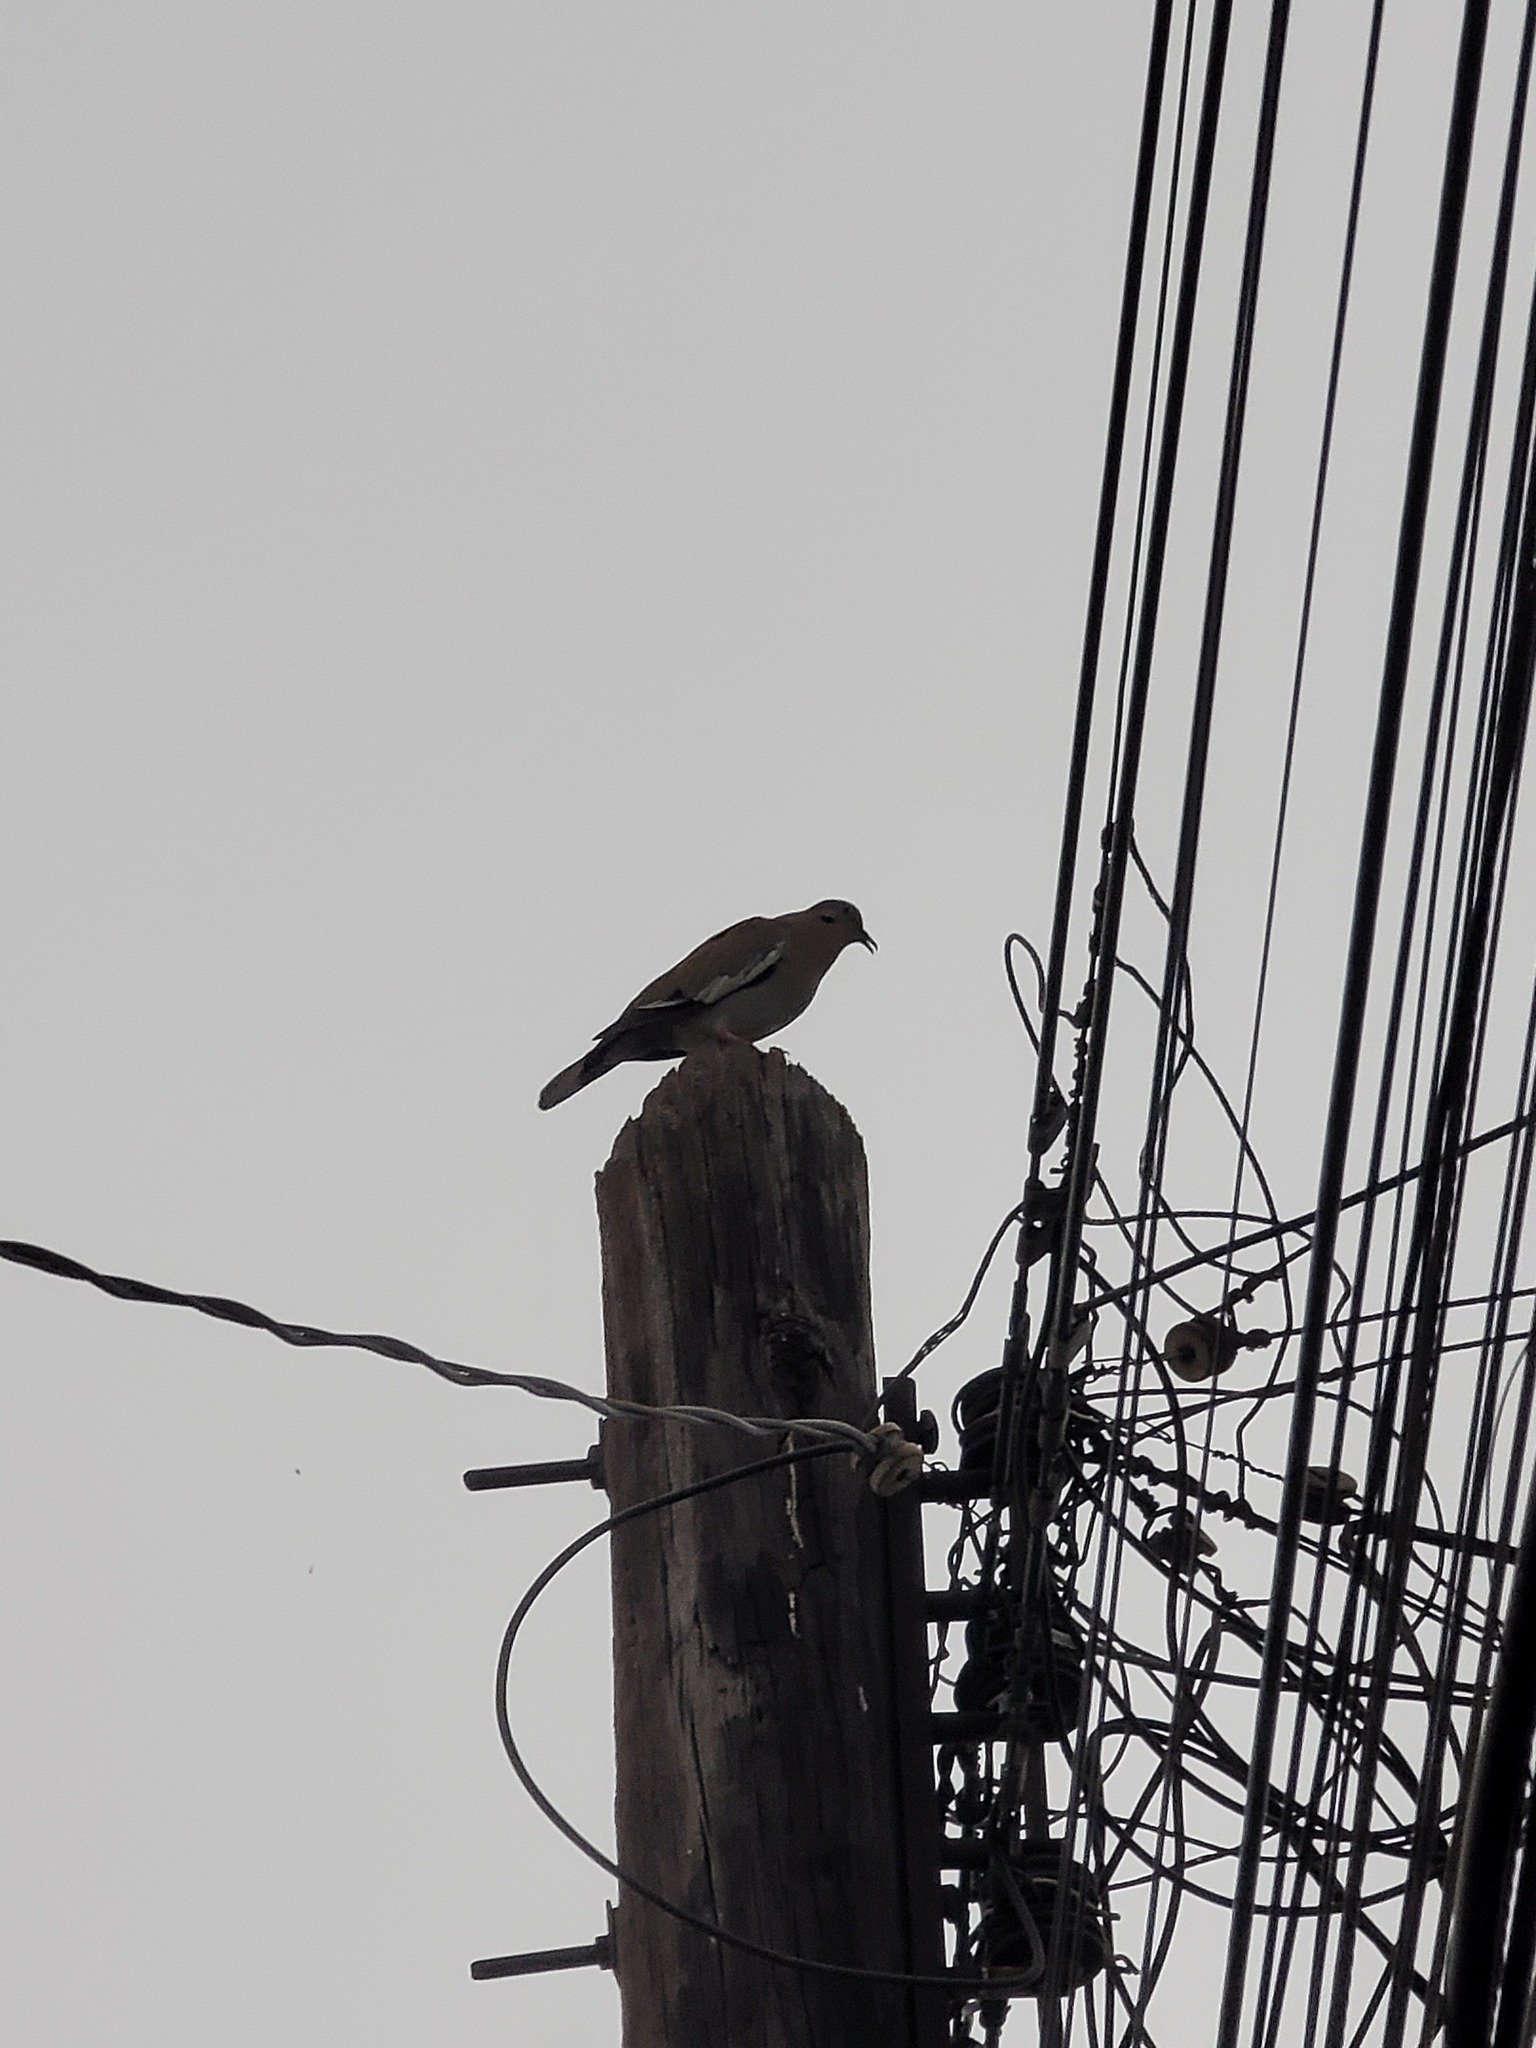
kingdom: Animalia
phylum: Chordata
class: Aves
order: Columbiformes
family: Columbidae
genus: Zenaida
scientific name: Zenaida asiatica
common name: White-winged dove
